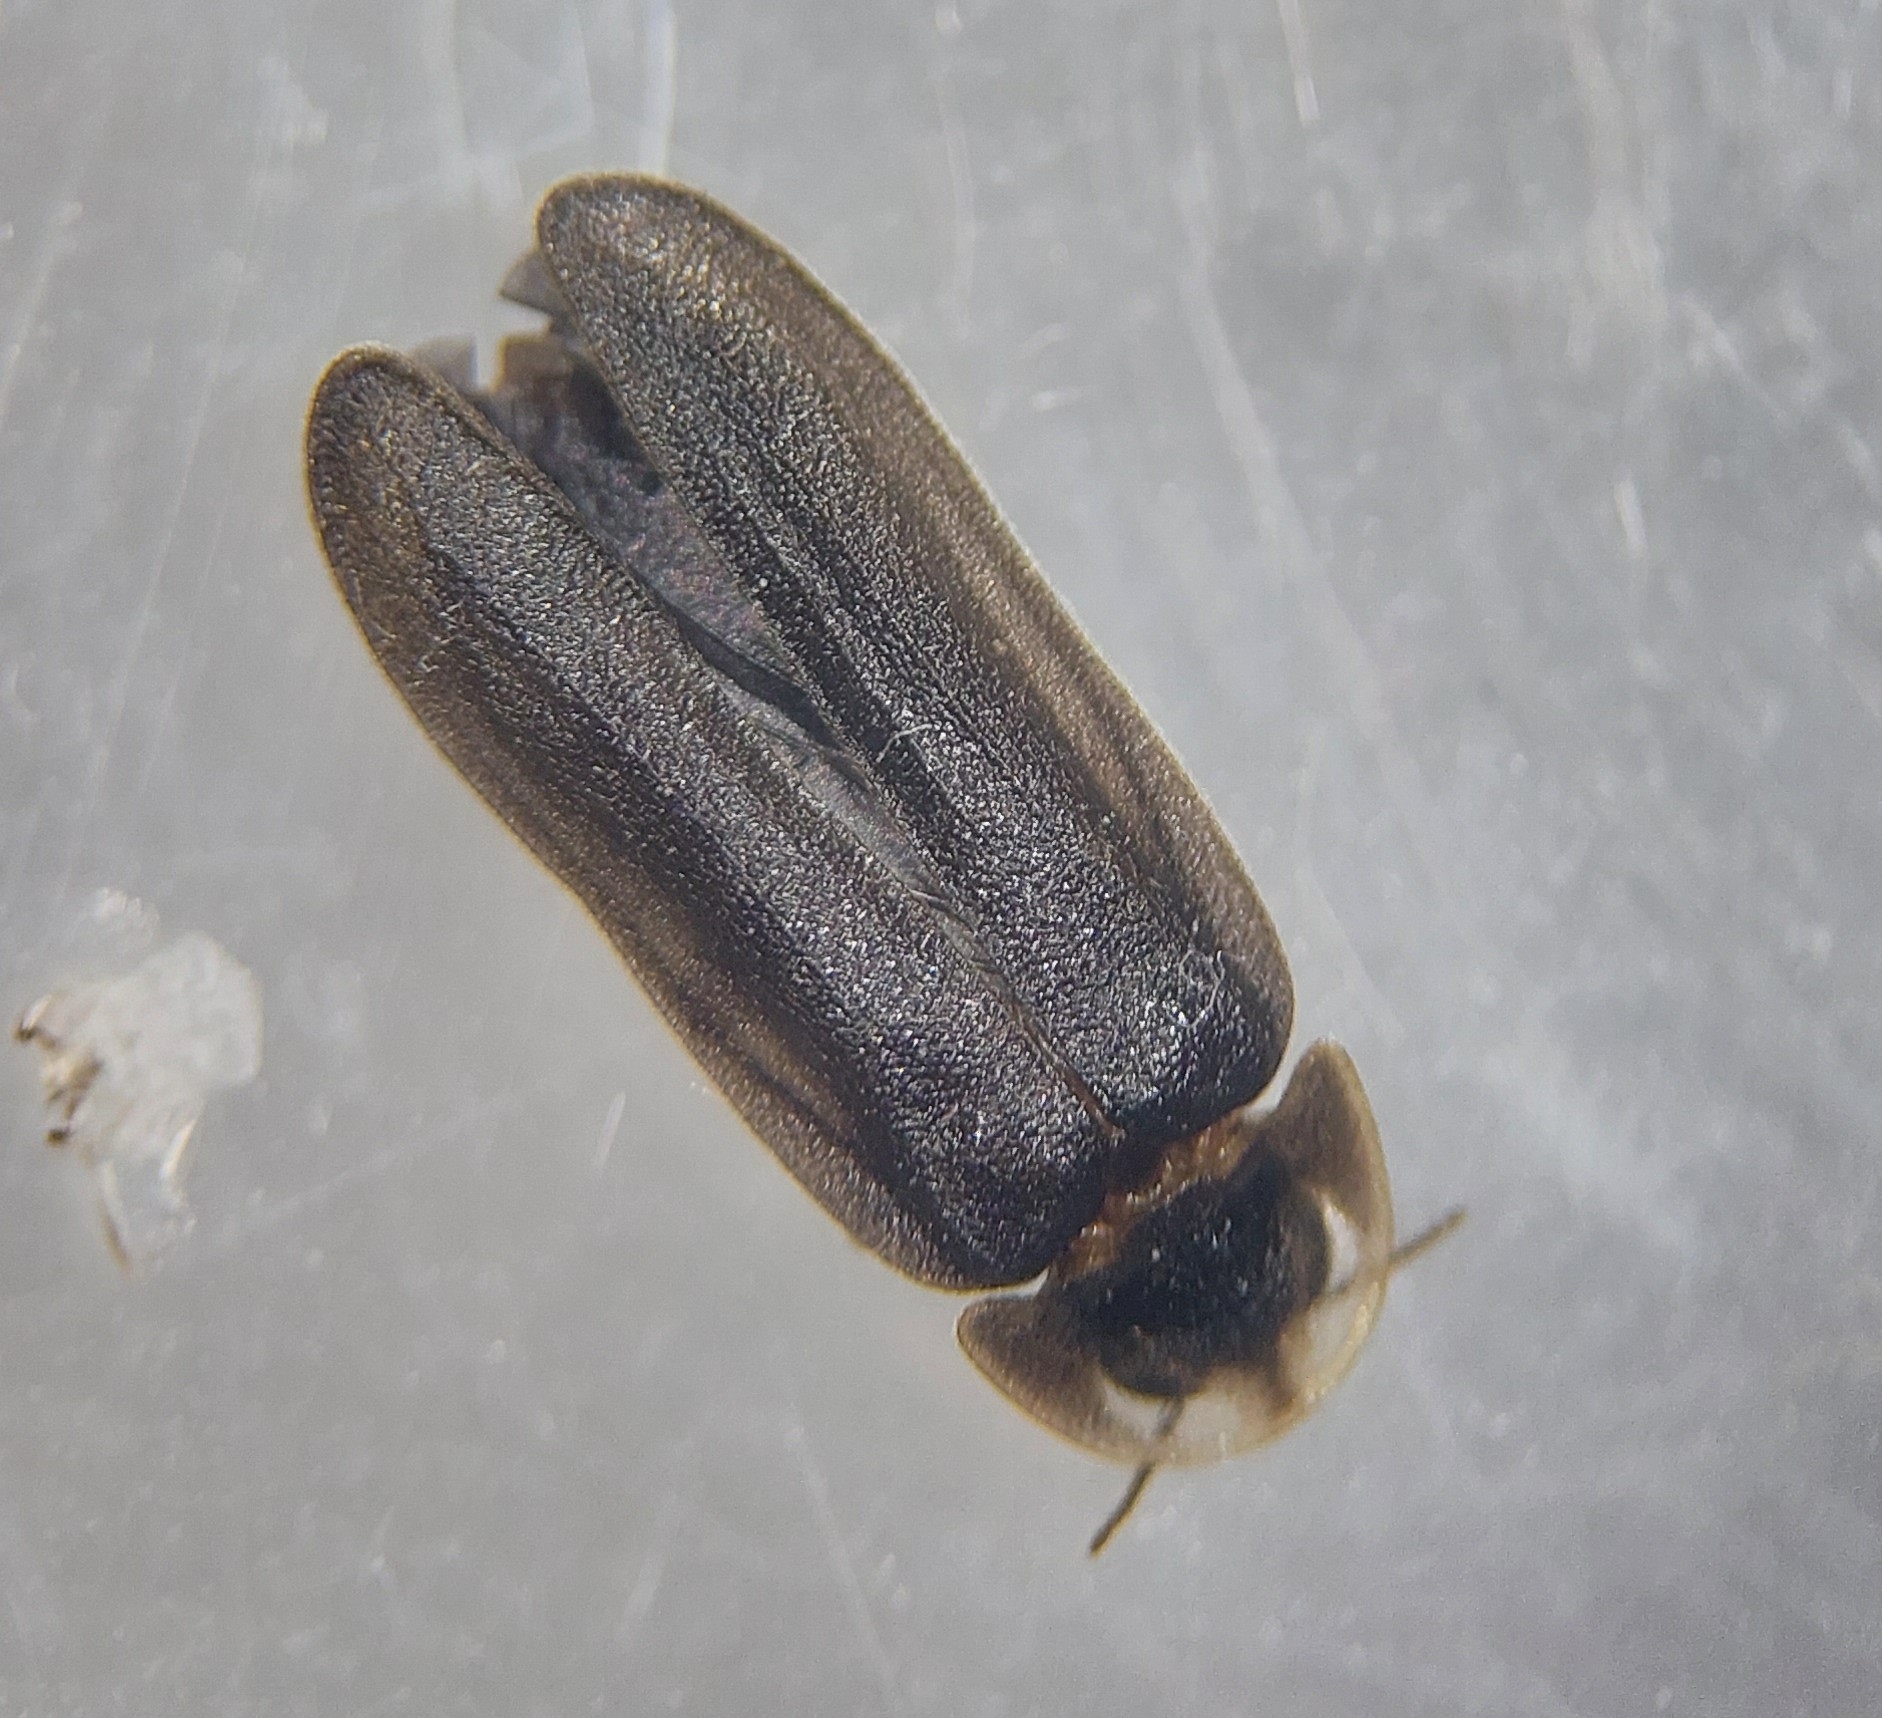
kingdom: Animalia
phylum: Arthropoda
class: Insecta
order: Coleoptera
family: Lampyridae
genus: Lamprohiza
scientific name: Lamprohiza splendidula
